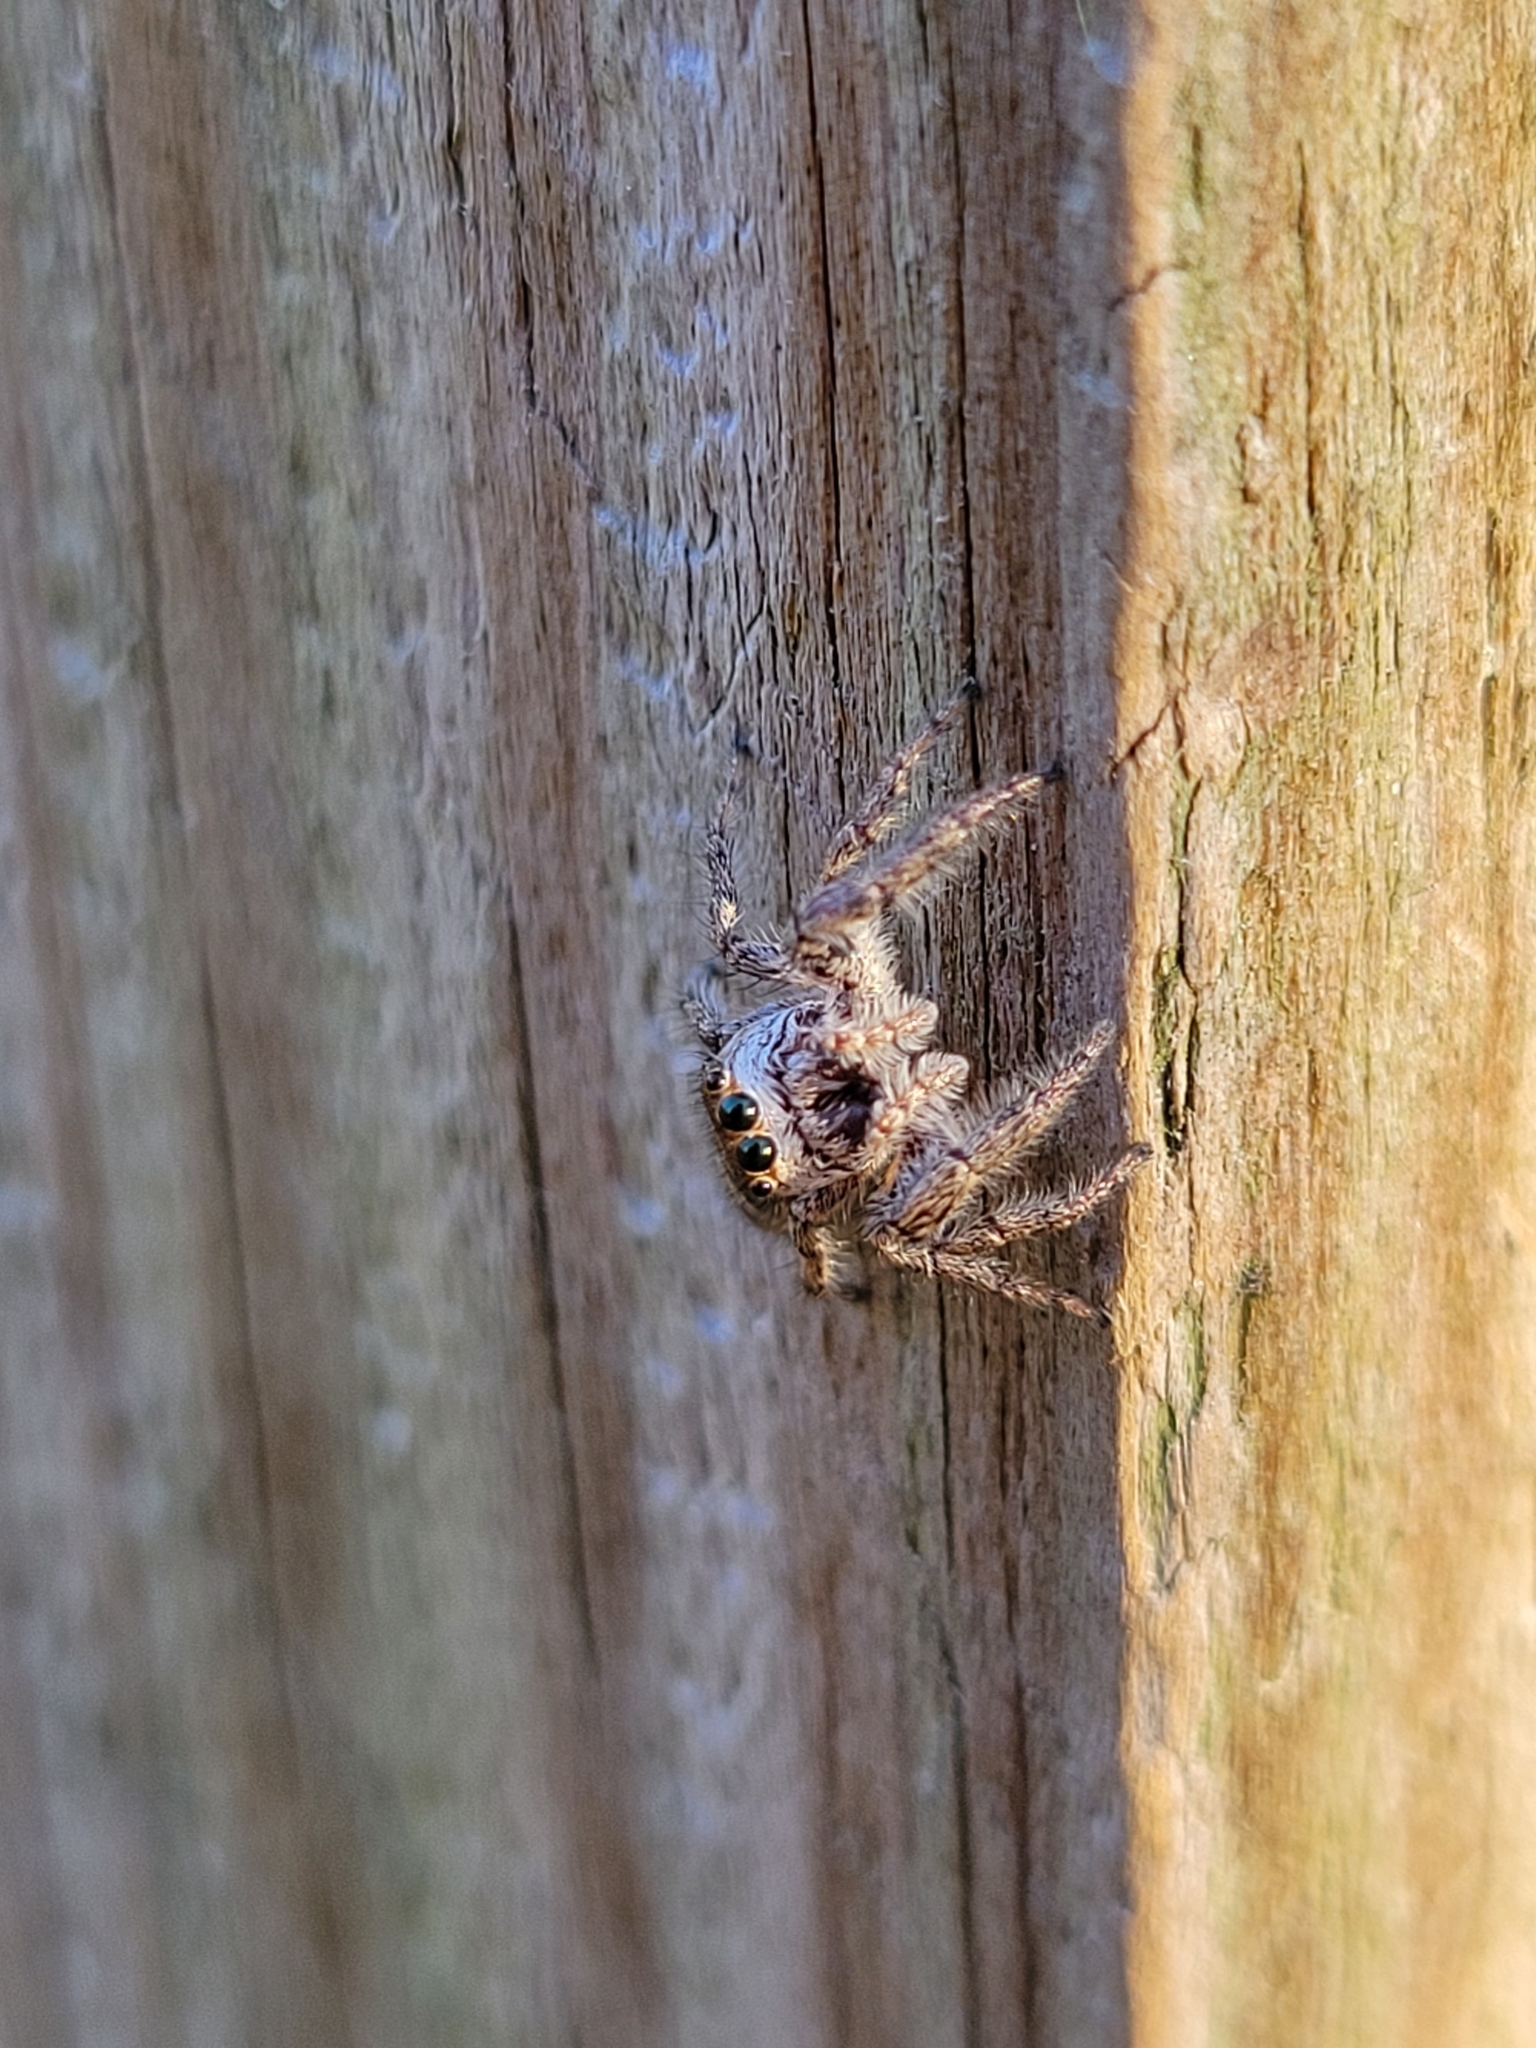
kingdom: Animalia
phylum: Arthropoda
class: Arachnida
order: Araneae
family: Salticidae
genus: Eris
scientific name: Eris militaris
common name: Bronze jumper
